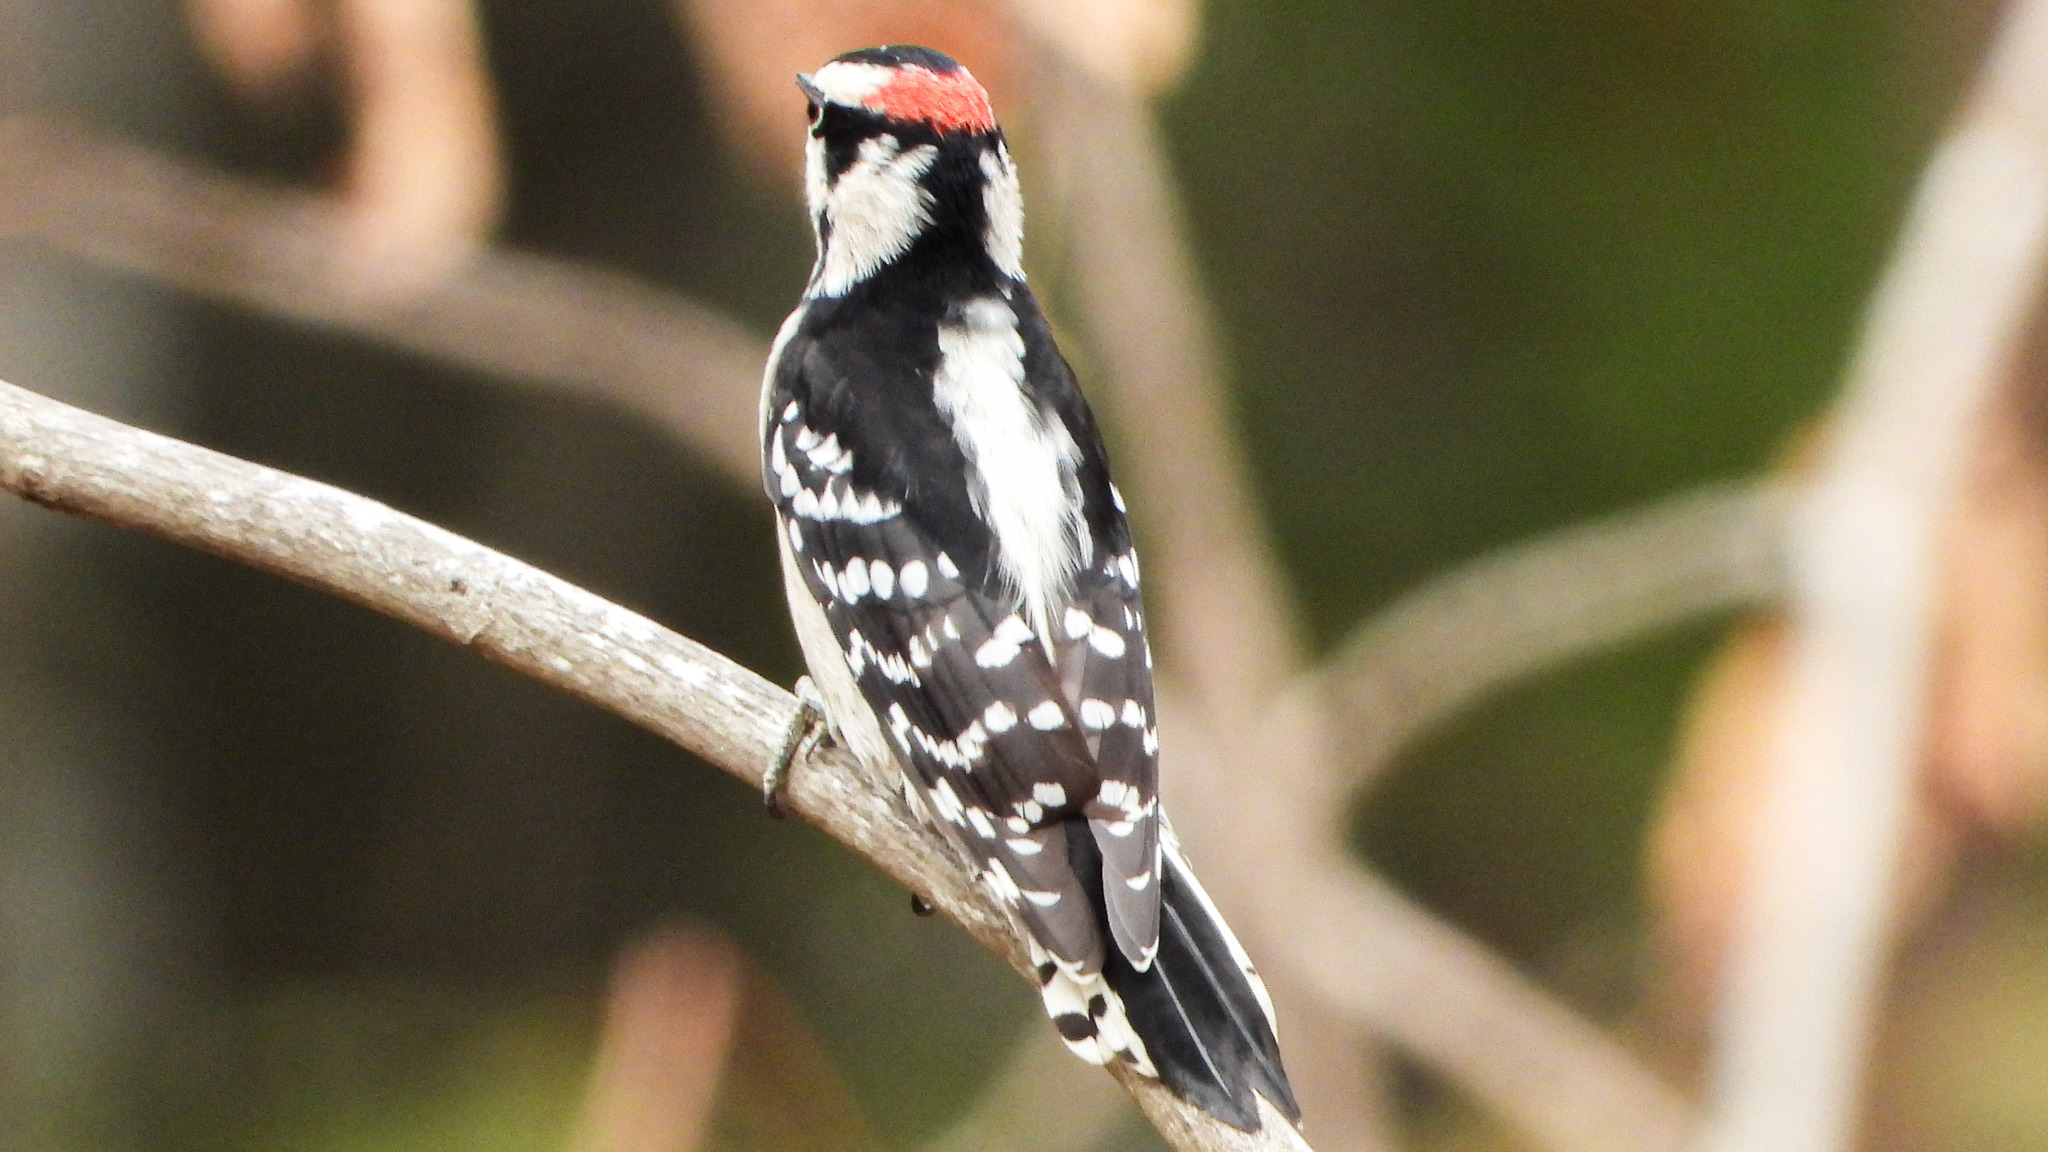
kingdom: Animalia
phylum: Chordata
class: Aves
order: Piciformes
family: Picidae
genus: Dryobates
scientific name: Dryobates pubescens
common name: Downy woodpecker
